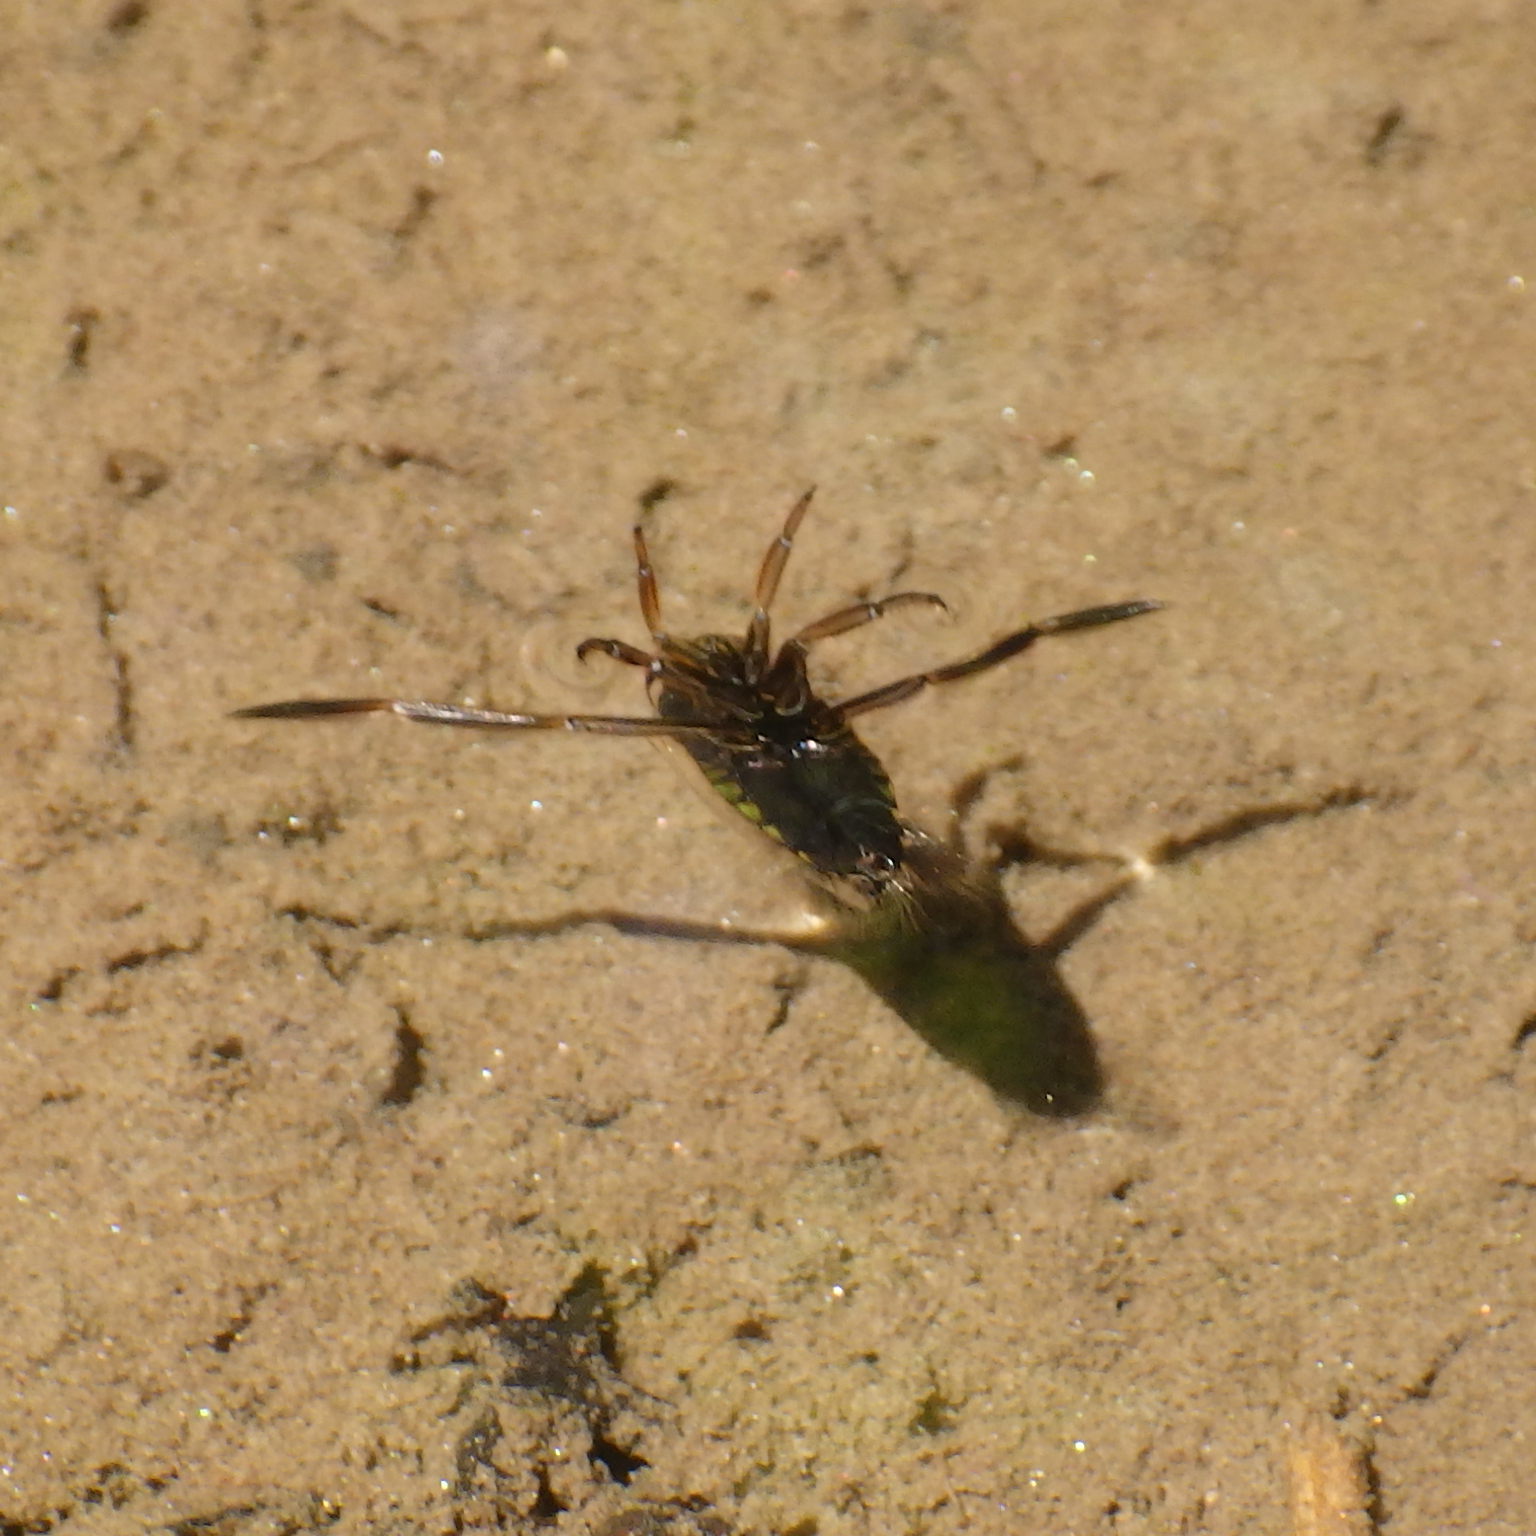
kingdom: Animalia
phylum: Arthropoda
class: Insecta
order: Hemiptera
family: Notonectidae
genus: Notonecta
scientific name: Notonecta
